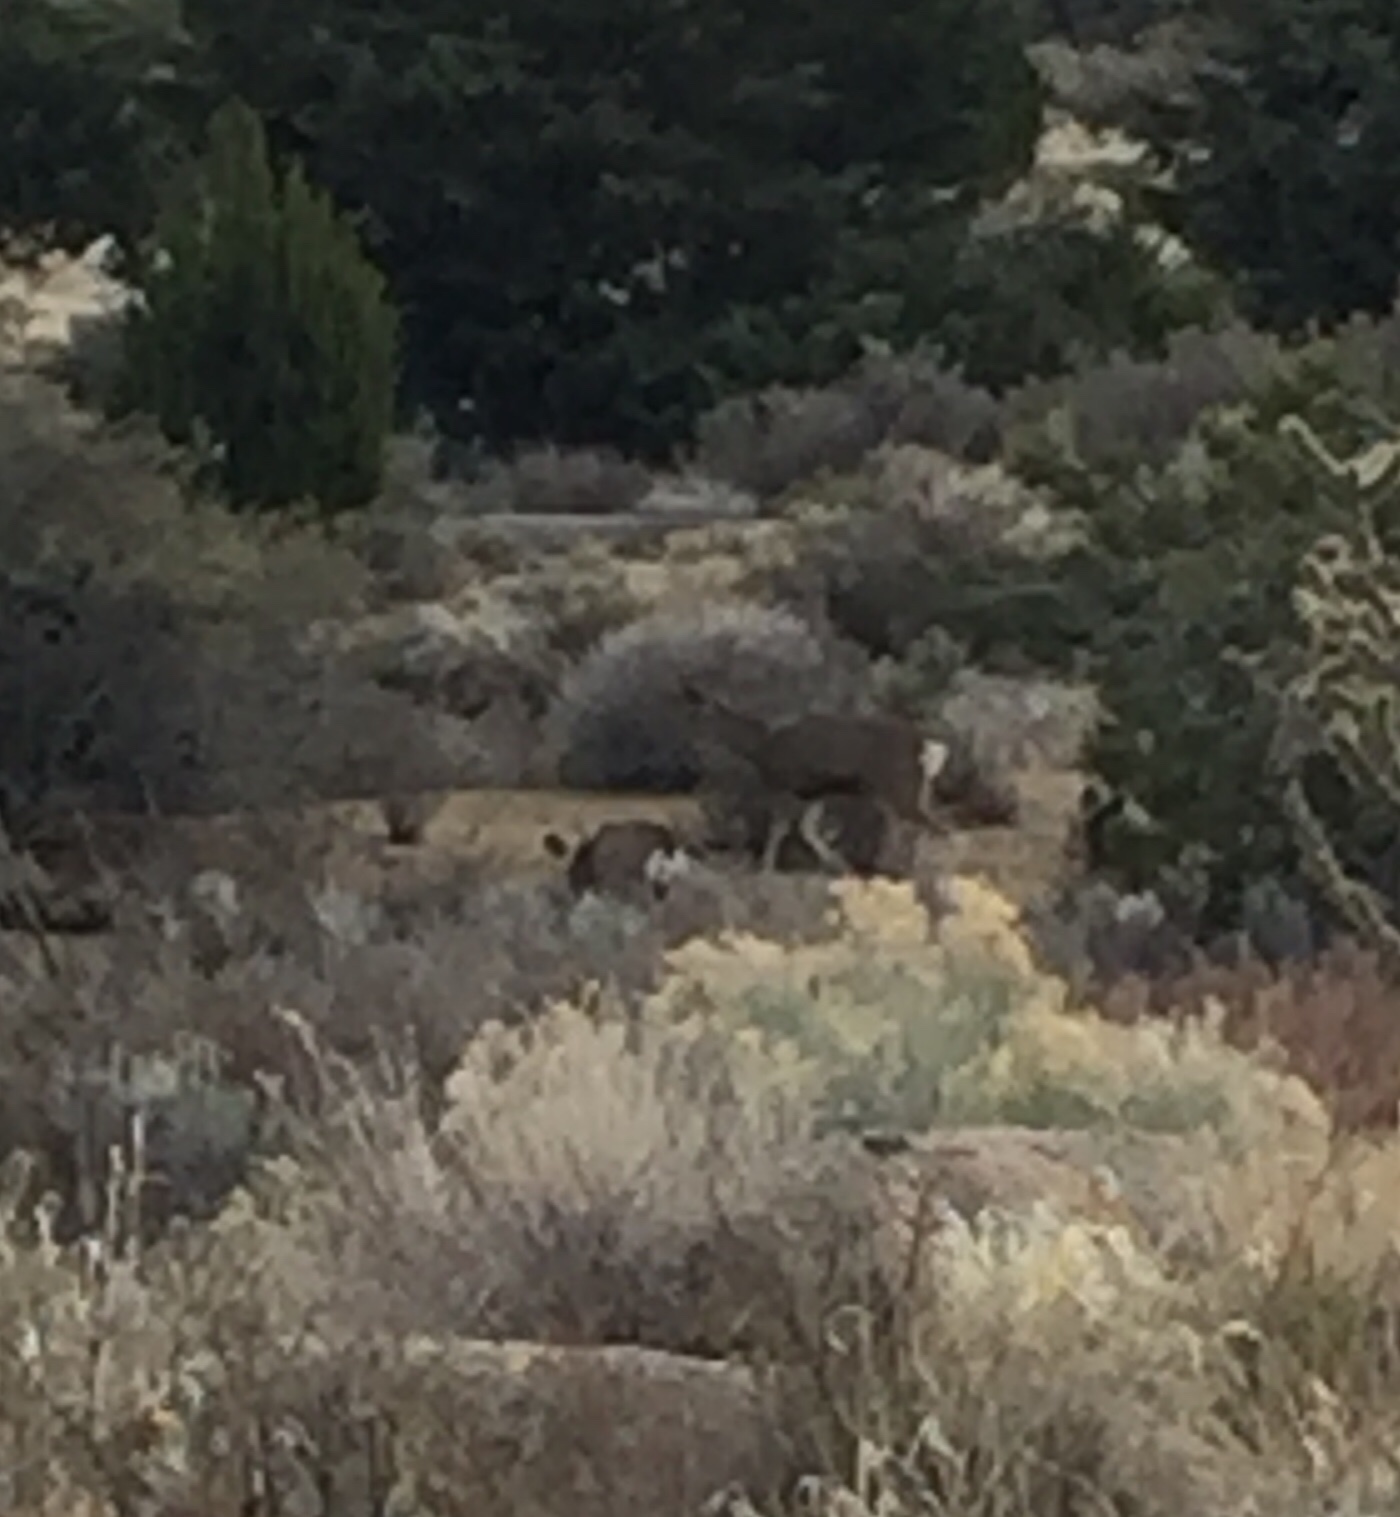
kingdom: Animalia
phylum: Chordata
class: Mammalia
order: Artiodactyla
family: Cervidae
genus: Odocoileus
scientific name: Odocoileus hemionus
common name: Mule deer
